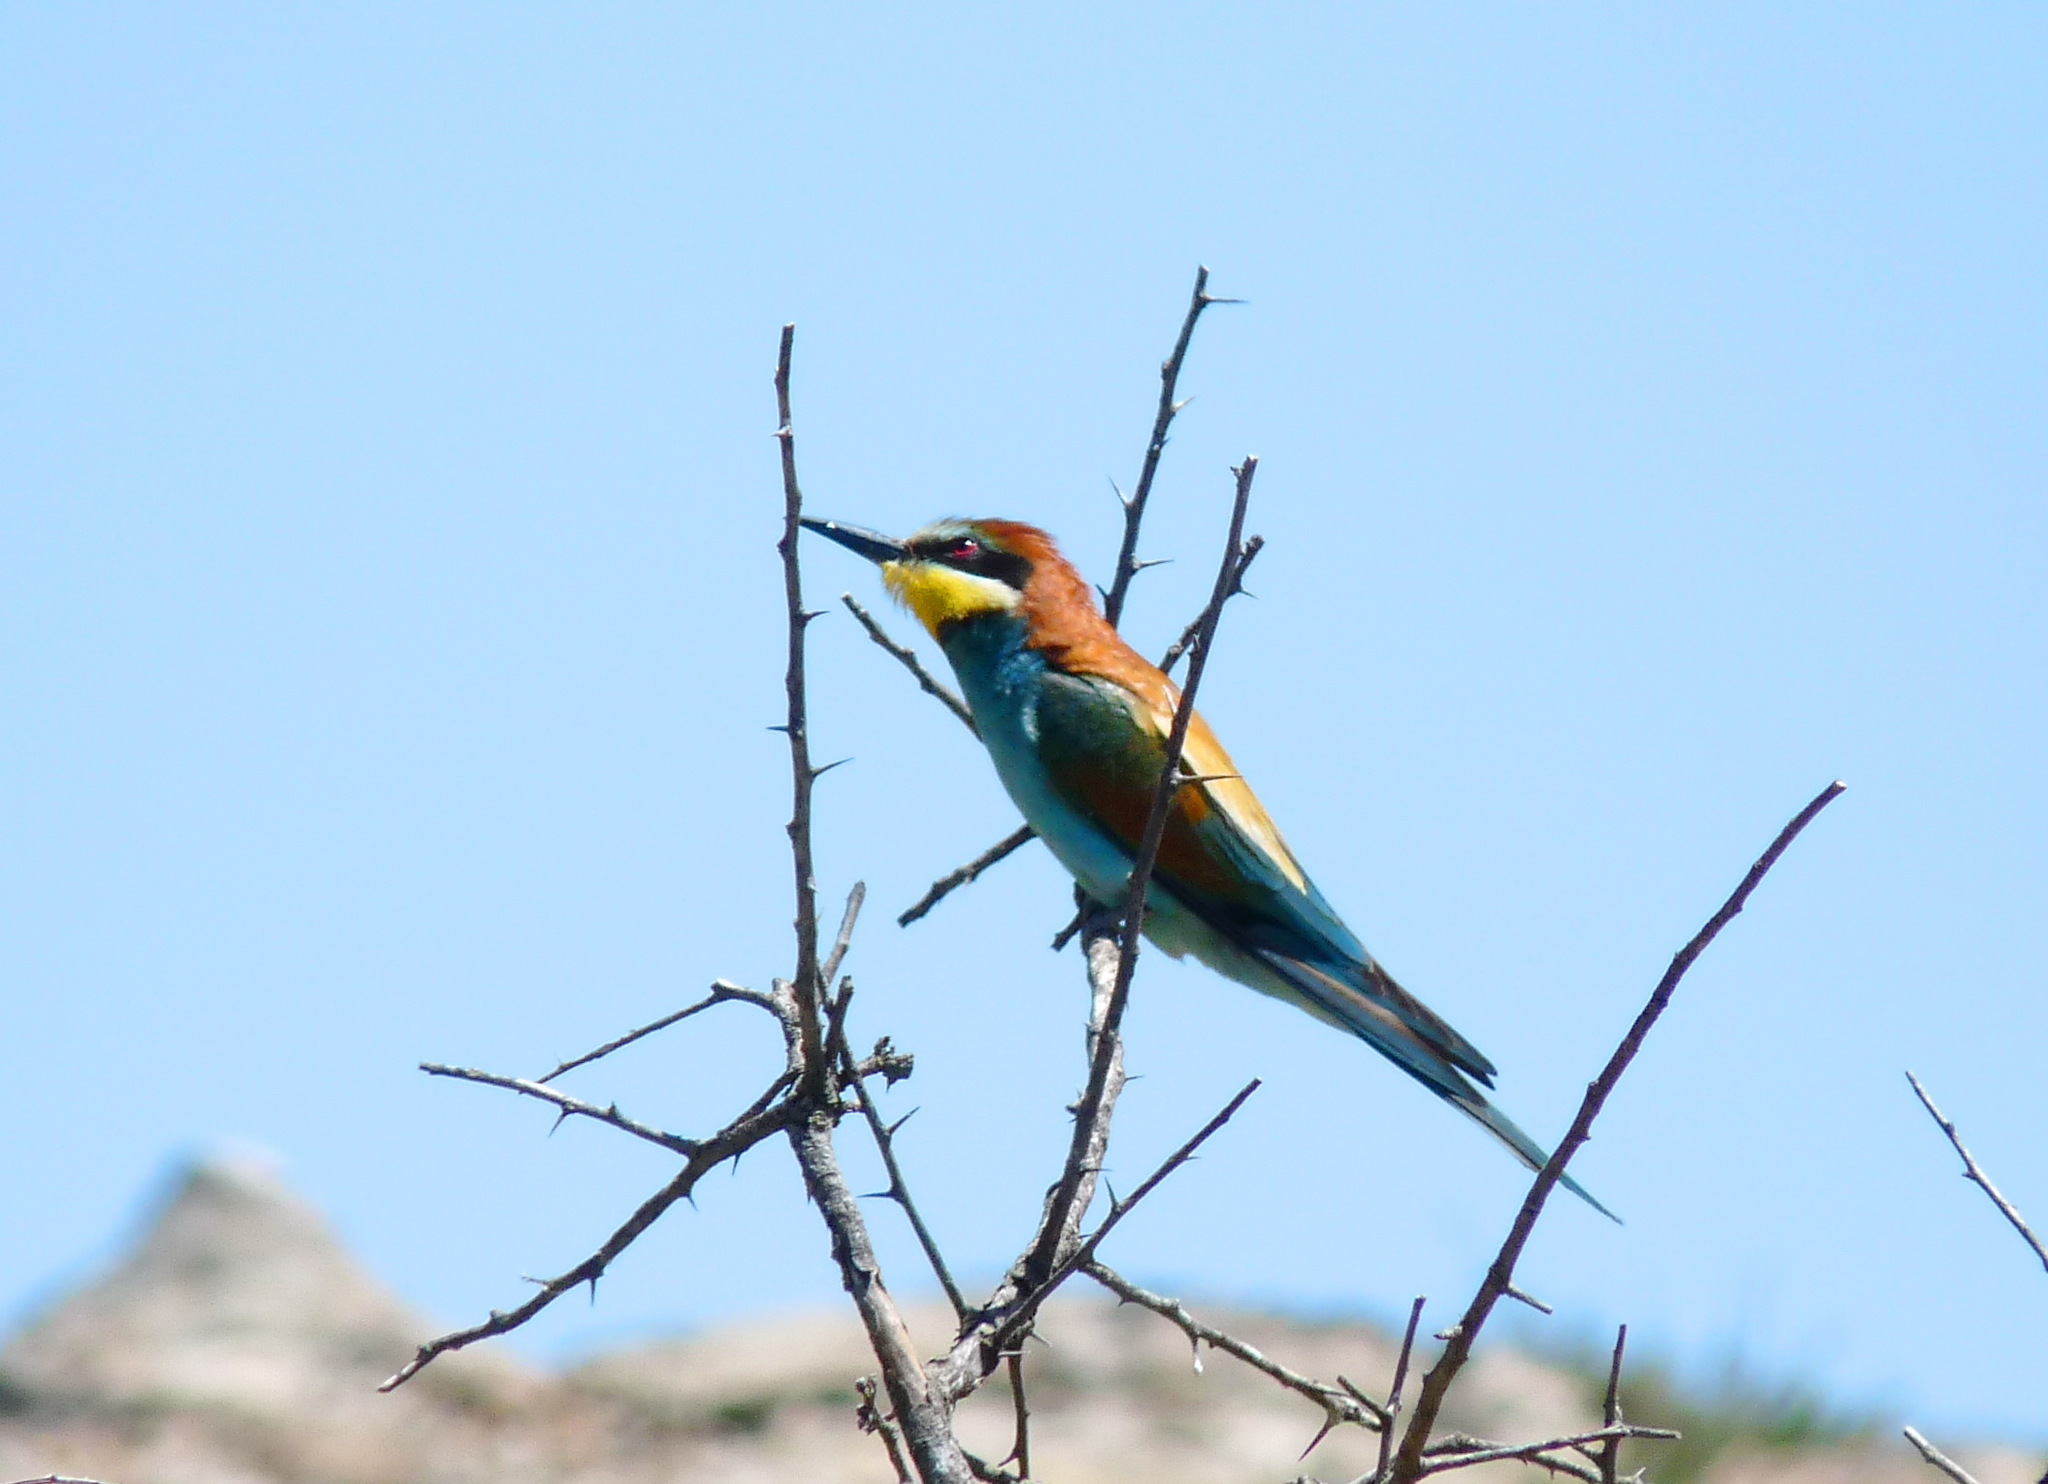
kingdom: Animalia
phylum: Chordata
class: Aves
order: Coraciiformes
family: Meropidae
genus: Merops
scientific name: Merops apiaster
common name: European bee-eater
